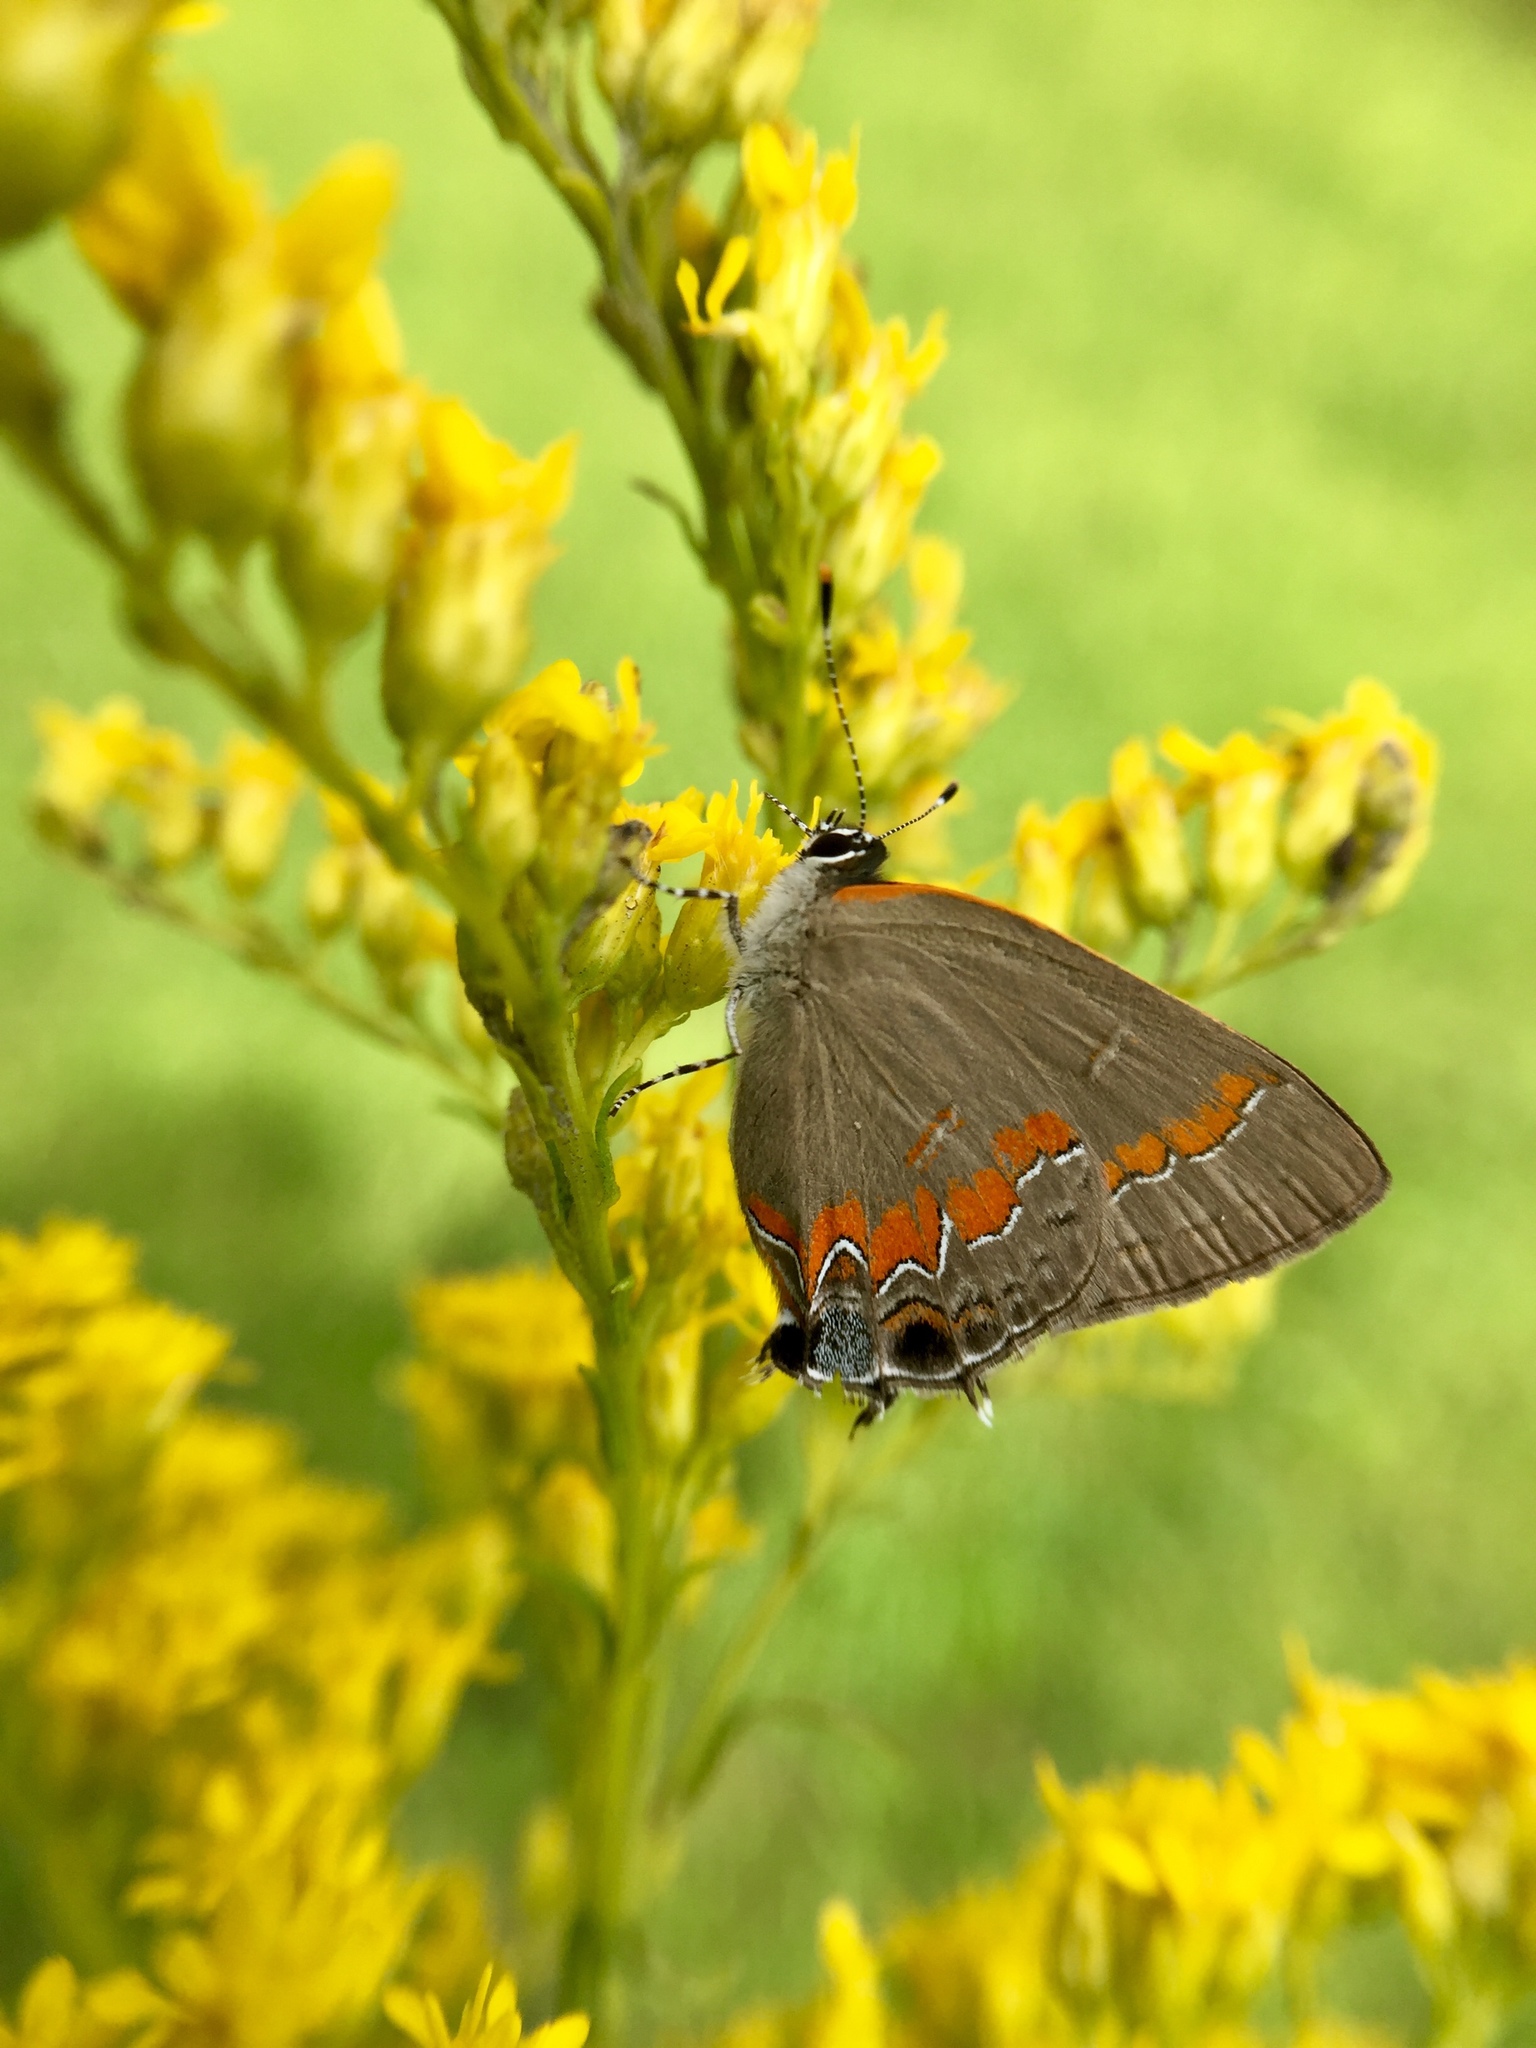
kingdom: Animalia
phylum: Arthropoda
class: Insecta
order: Lepidoptera
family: Lycaenidae
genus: Calycopis
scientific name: Calycopis cecrops
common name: Red-banded hairstreak
